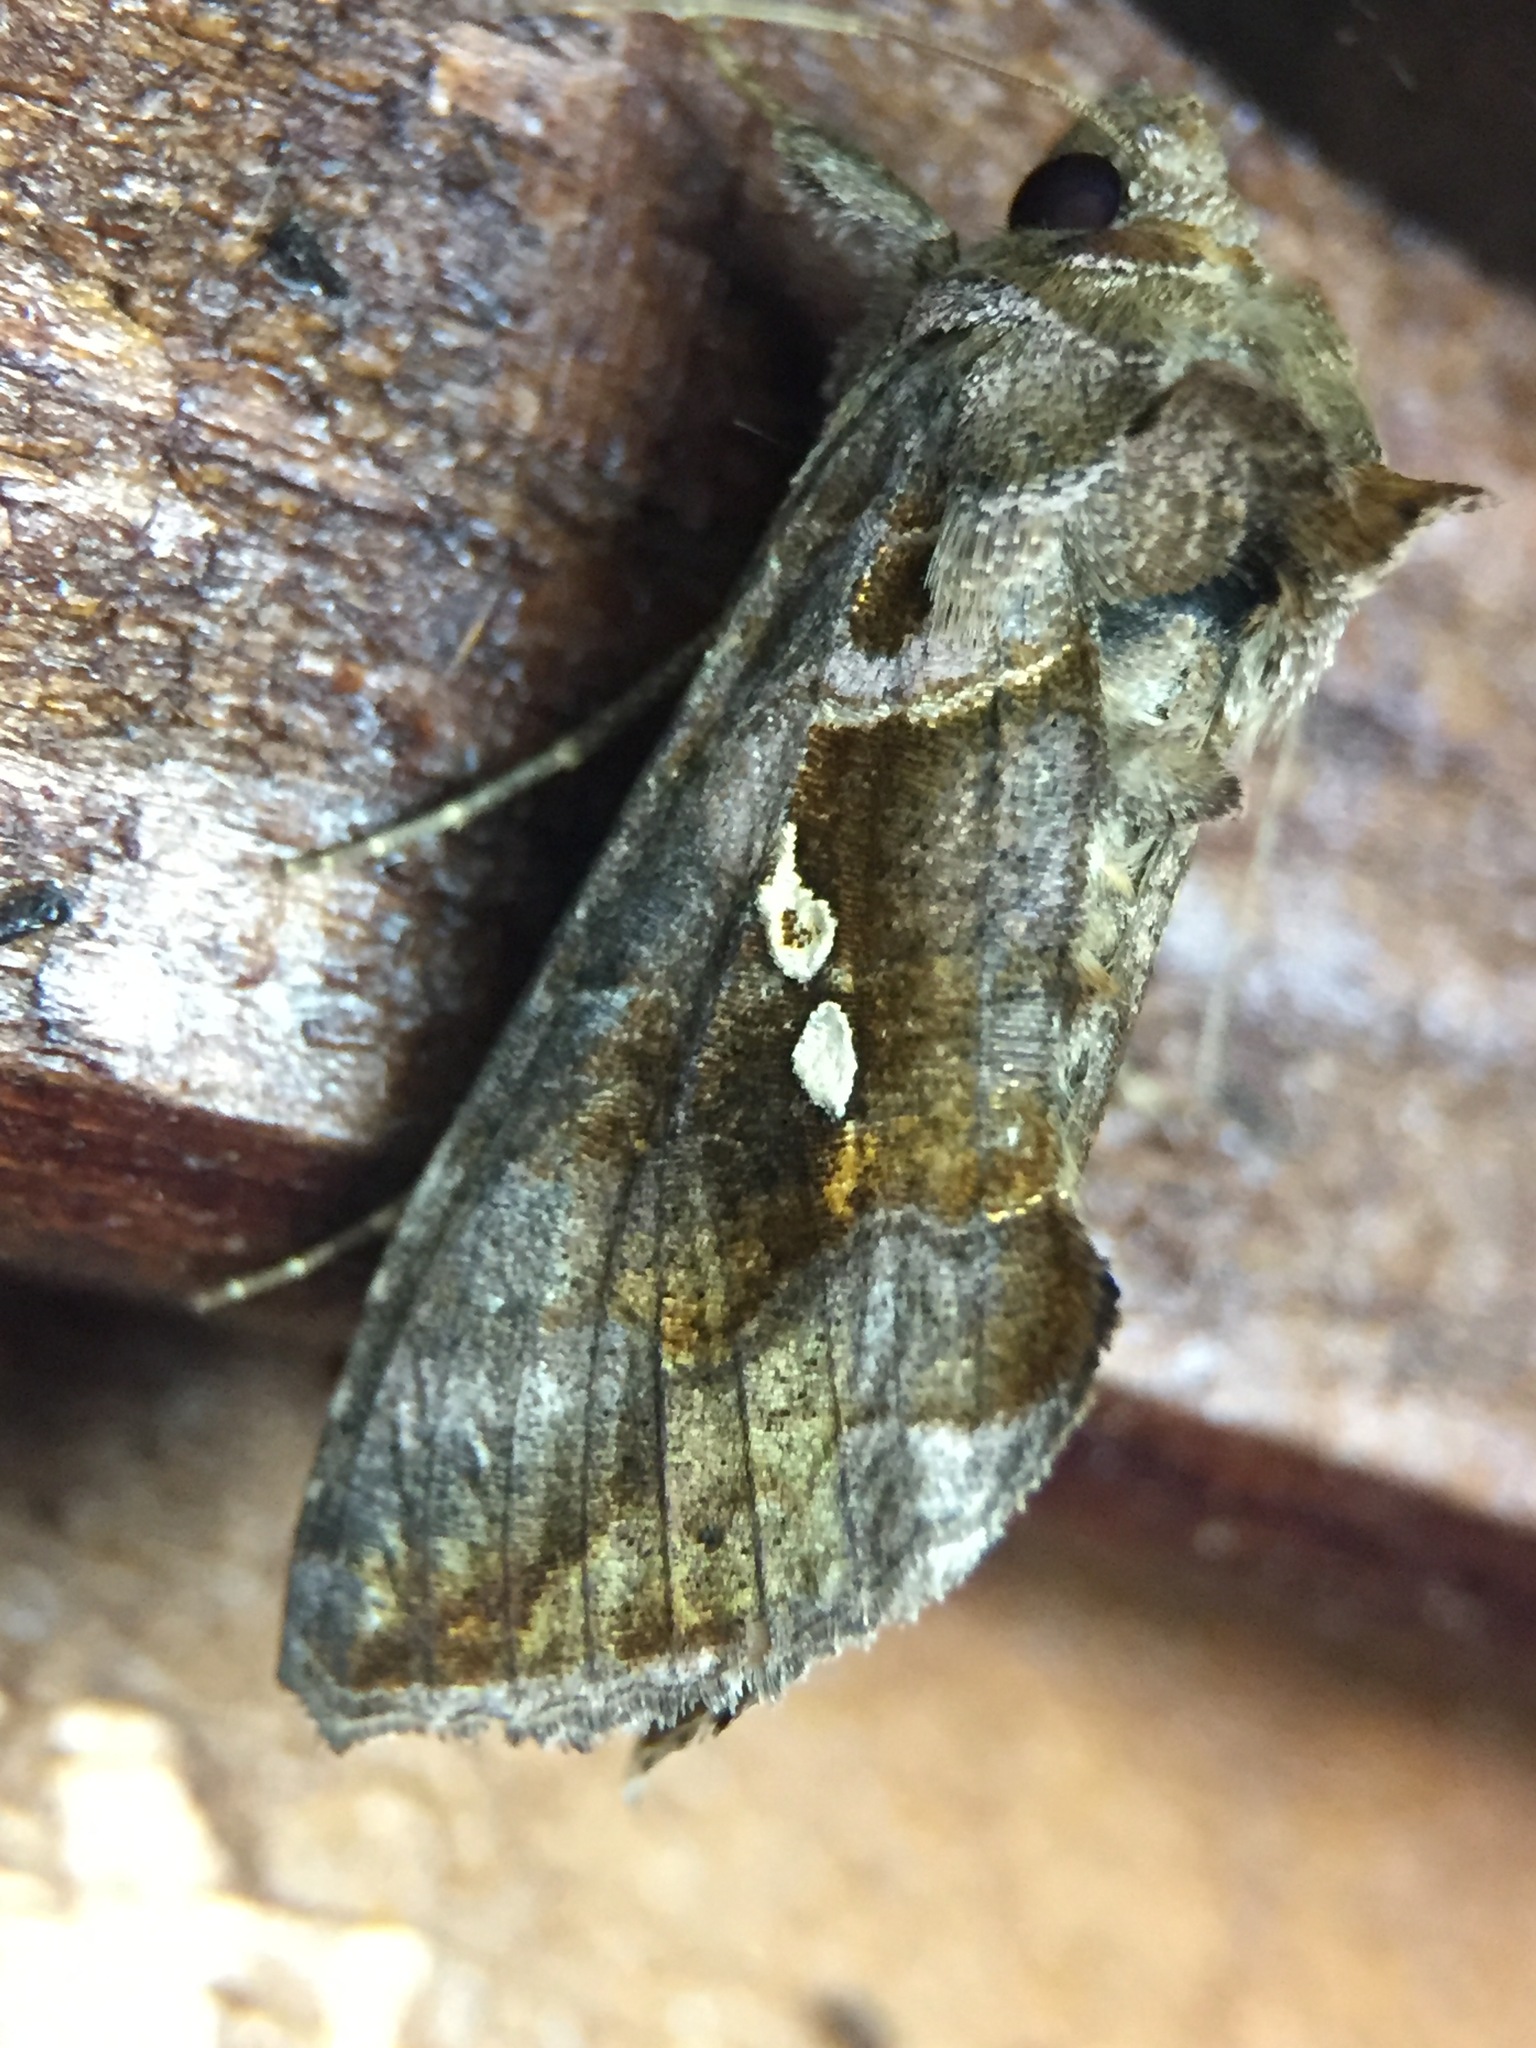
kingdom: Animalia
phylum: Arthropoda
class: Insecta
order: Lepidoptera
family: Noctuidae
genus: Chrysodeixis
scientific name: Chrysodeixis eriosoma
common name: Green garden looper
